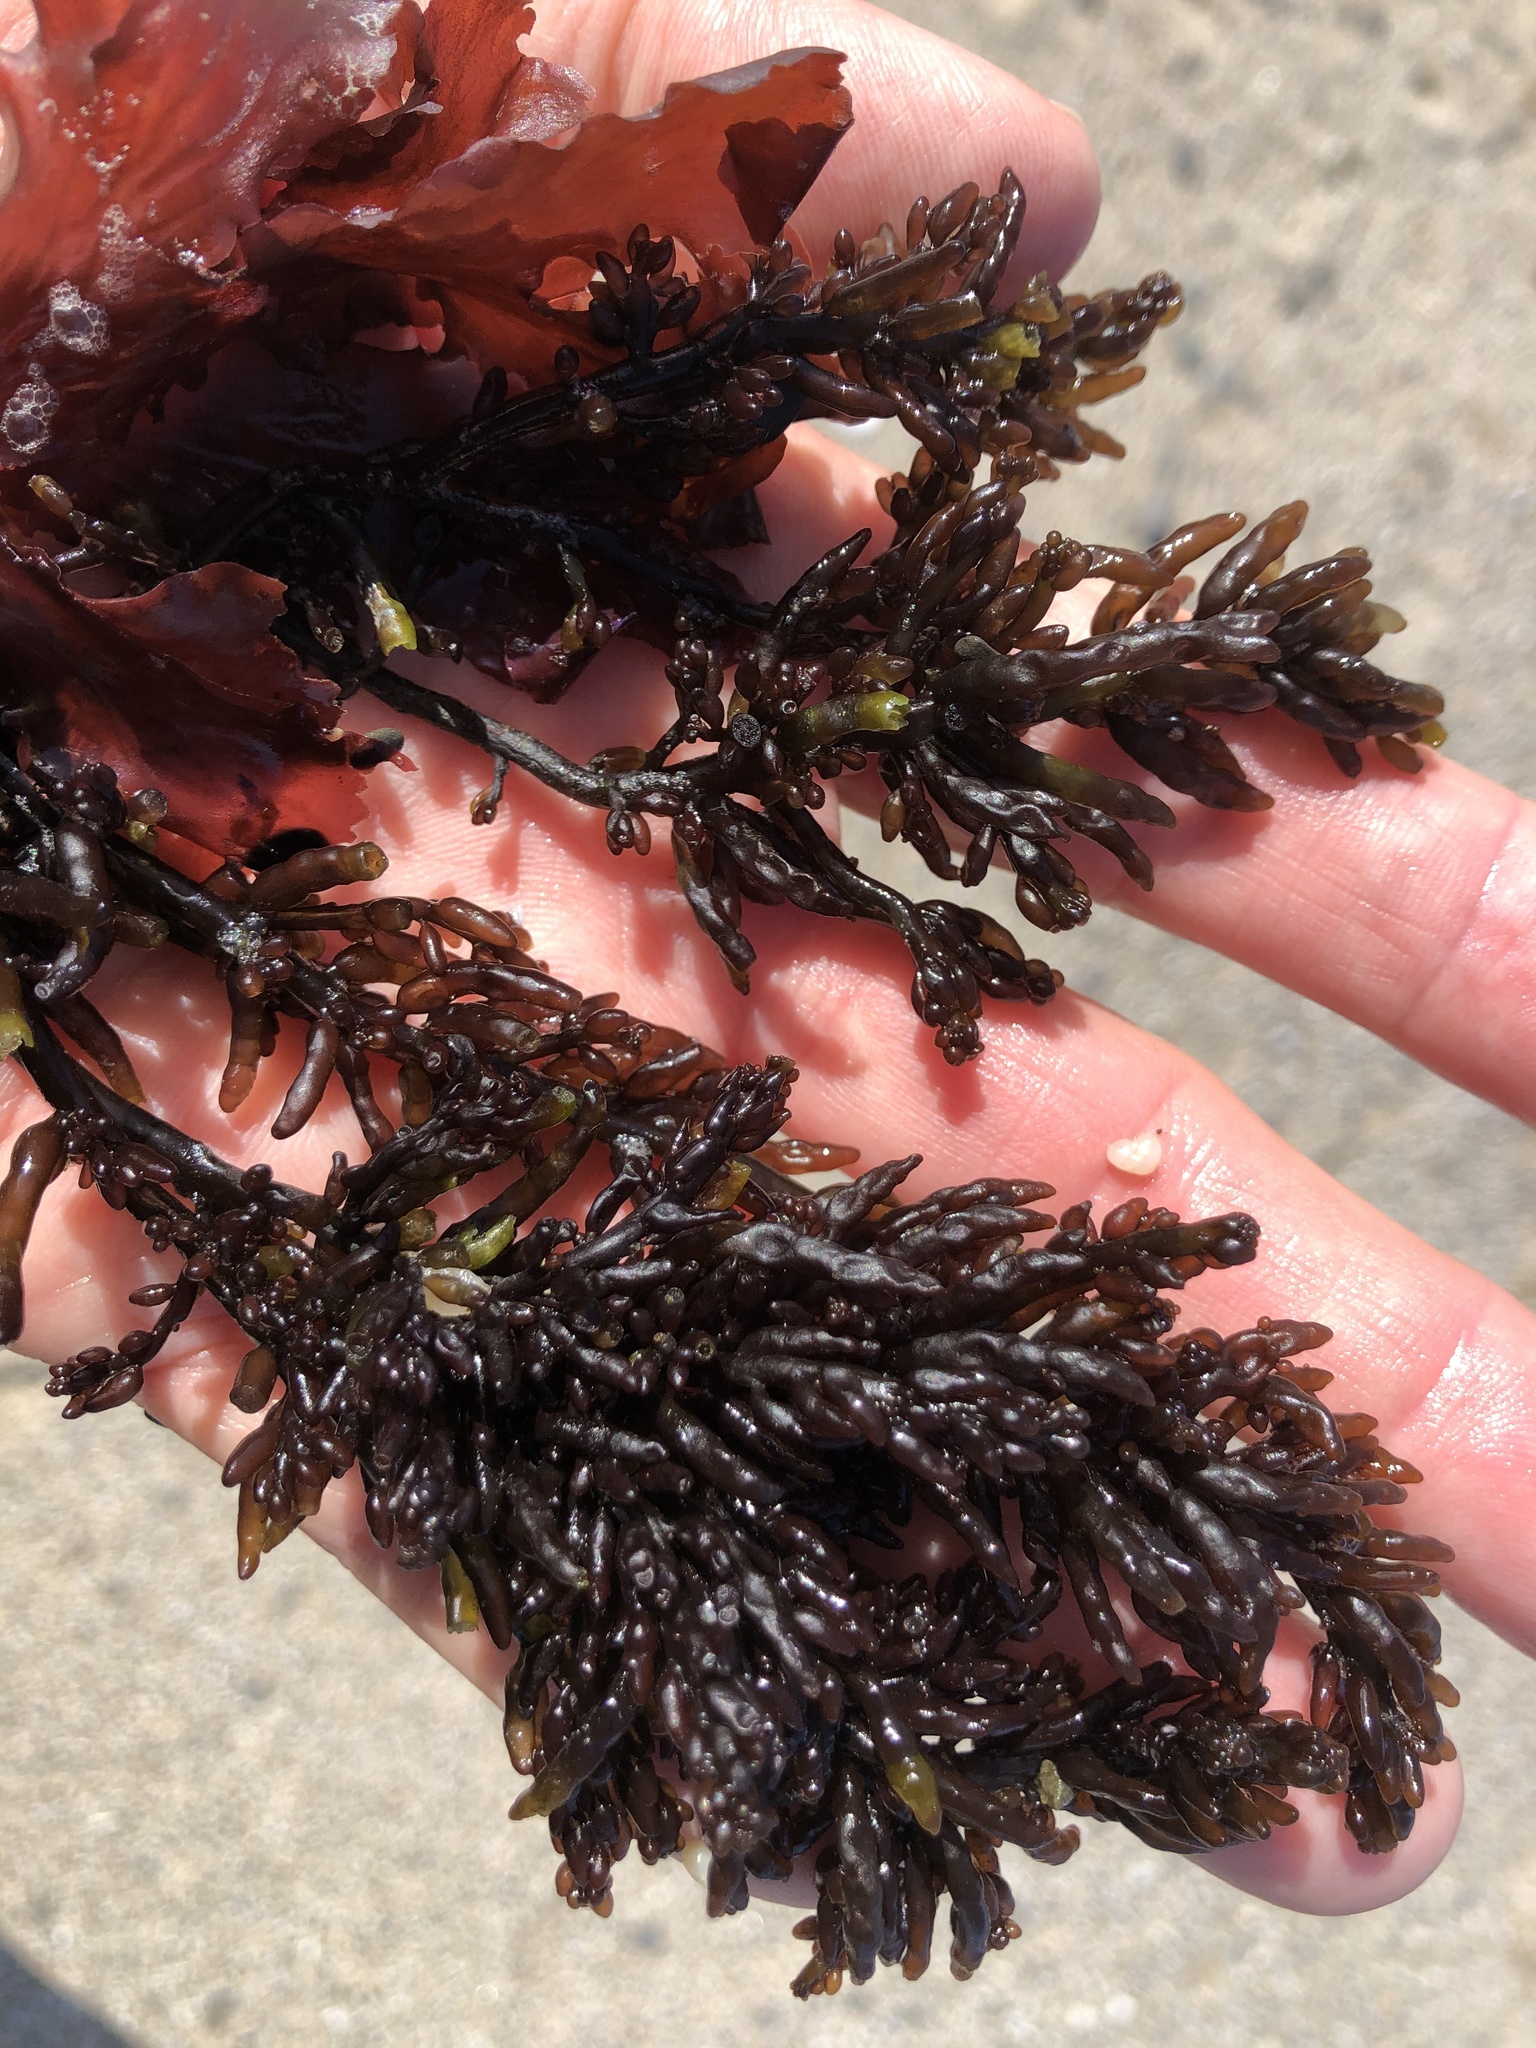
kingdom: Plantae
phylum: Rhodophyta
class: Florideophyceae
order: Rhodymeniales
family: Champiaceae
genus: Neogastroclonium
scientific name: Neogastroclonium subarticulatum
